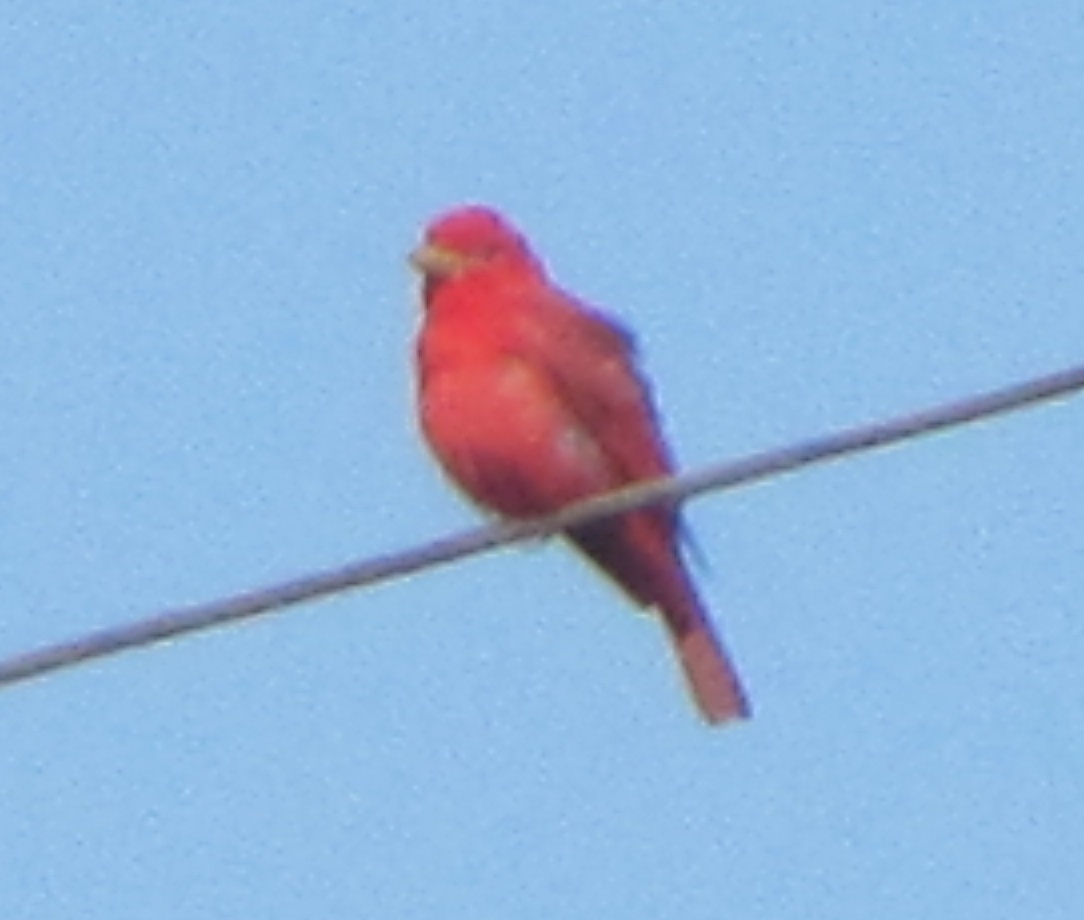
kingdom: Animalia
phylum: Chordata
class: Aves
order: Passeriformes
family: Cardinalidae
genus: Piranga
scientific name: Piranga rubra
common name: Summer tanager
